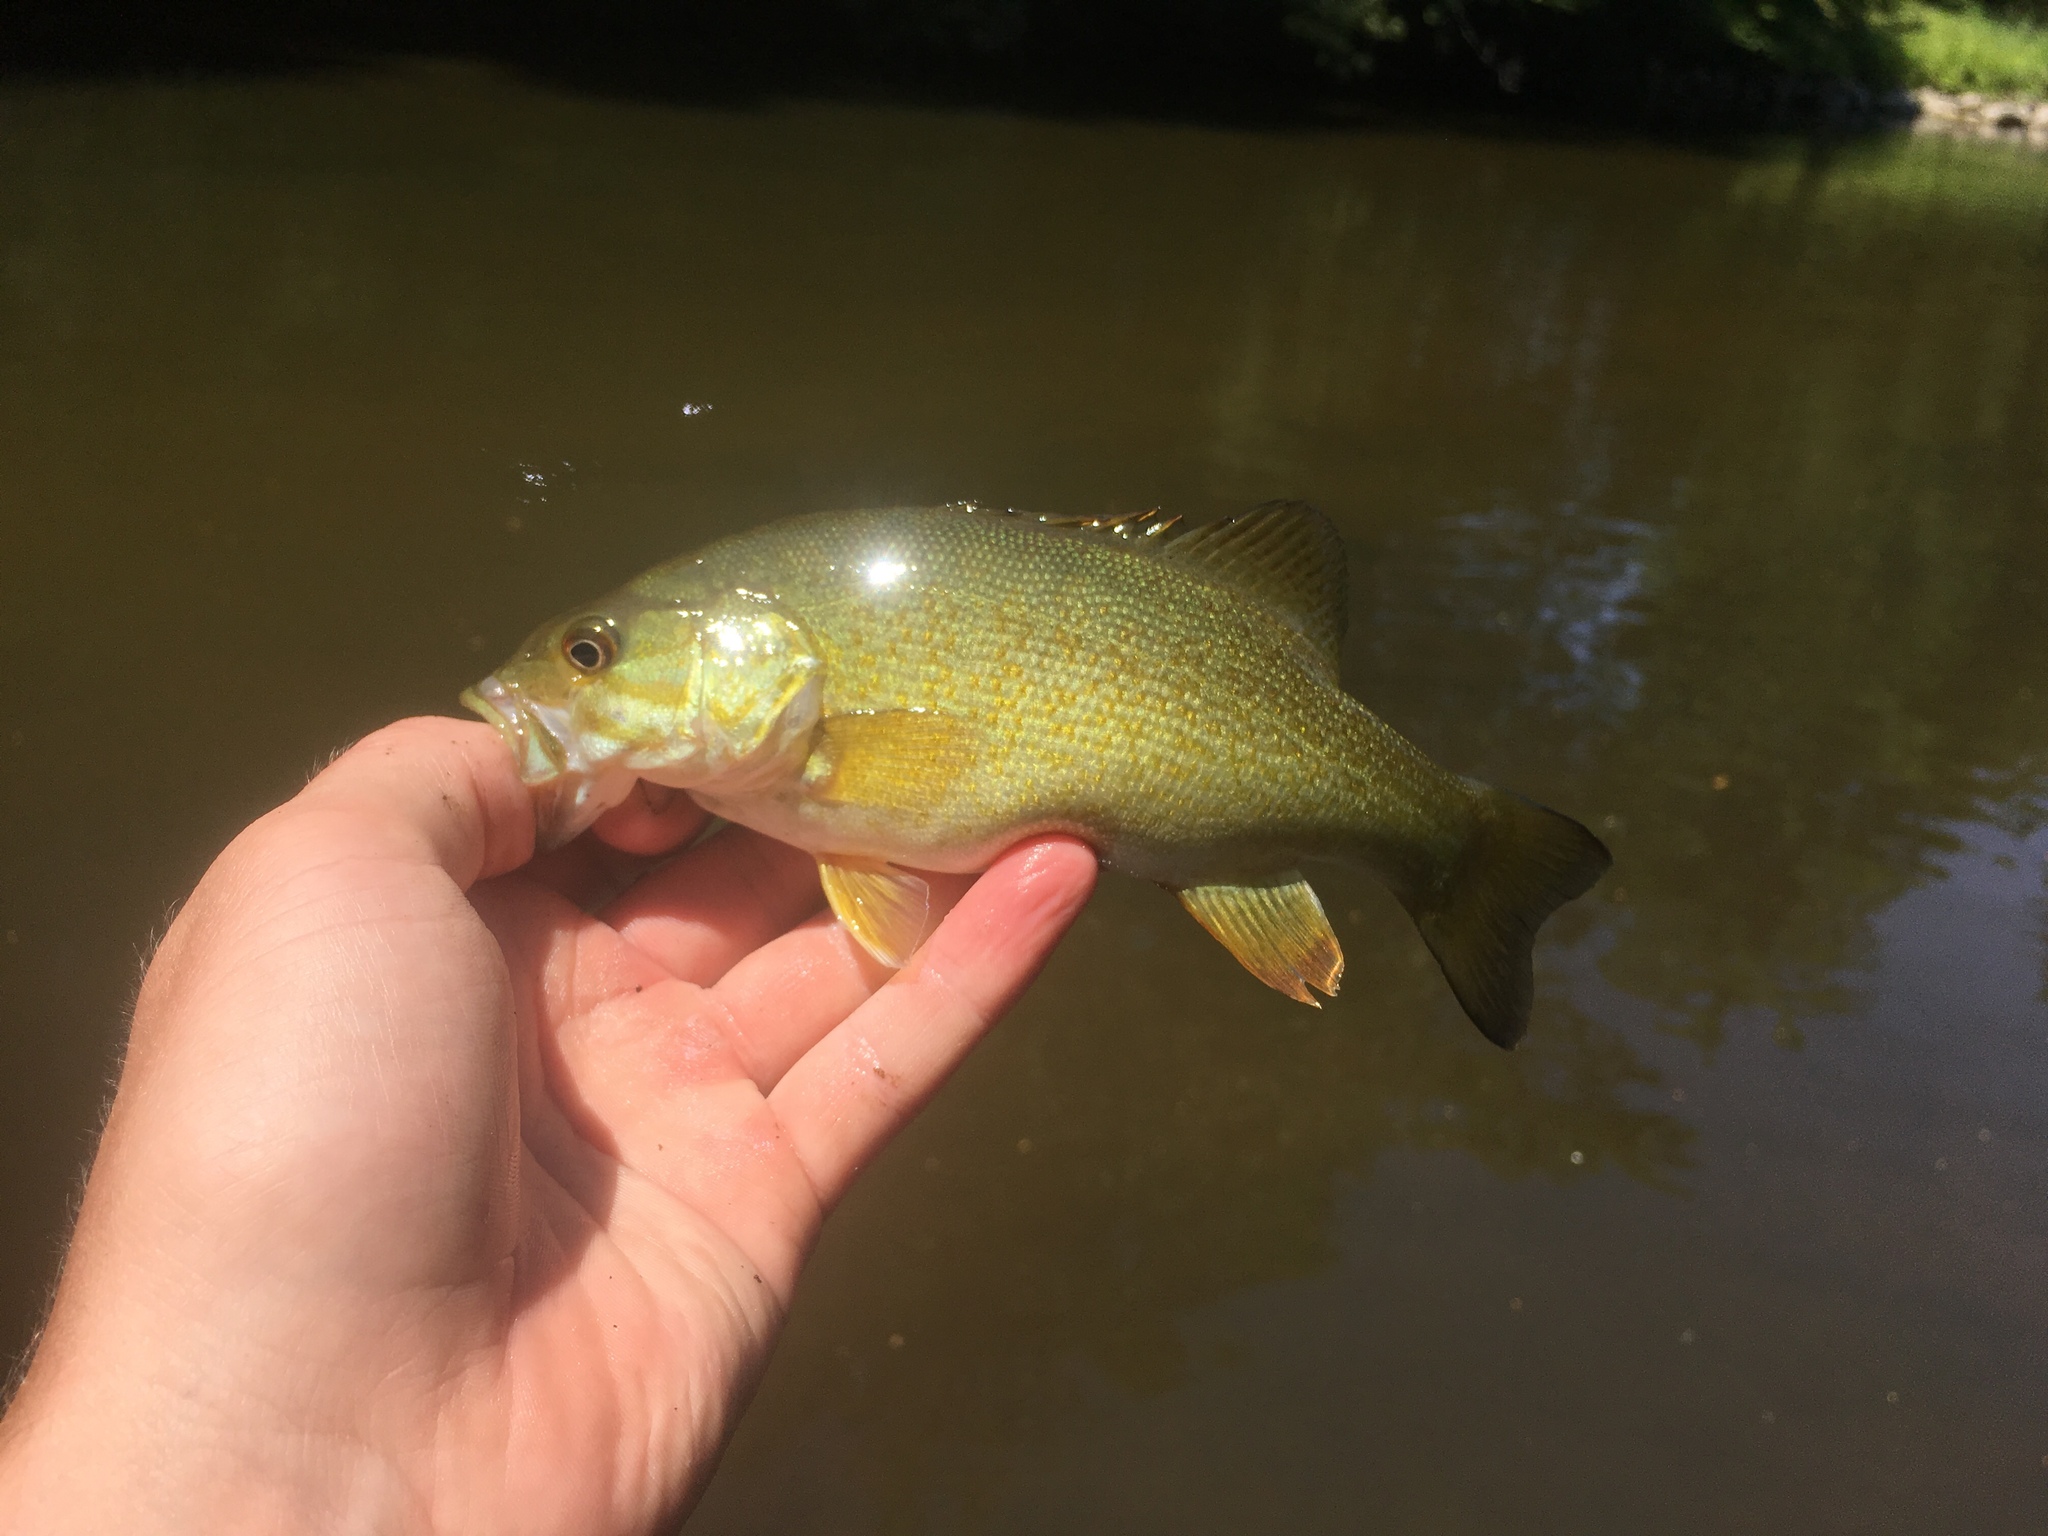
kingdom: Animalia
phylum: Chordata
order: Perciformes
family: Centrarchidae
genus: Micropterus
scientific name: Micropterus dolomieu
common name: Smallmouth bass
